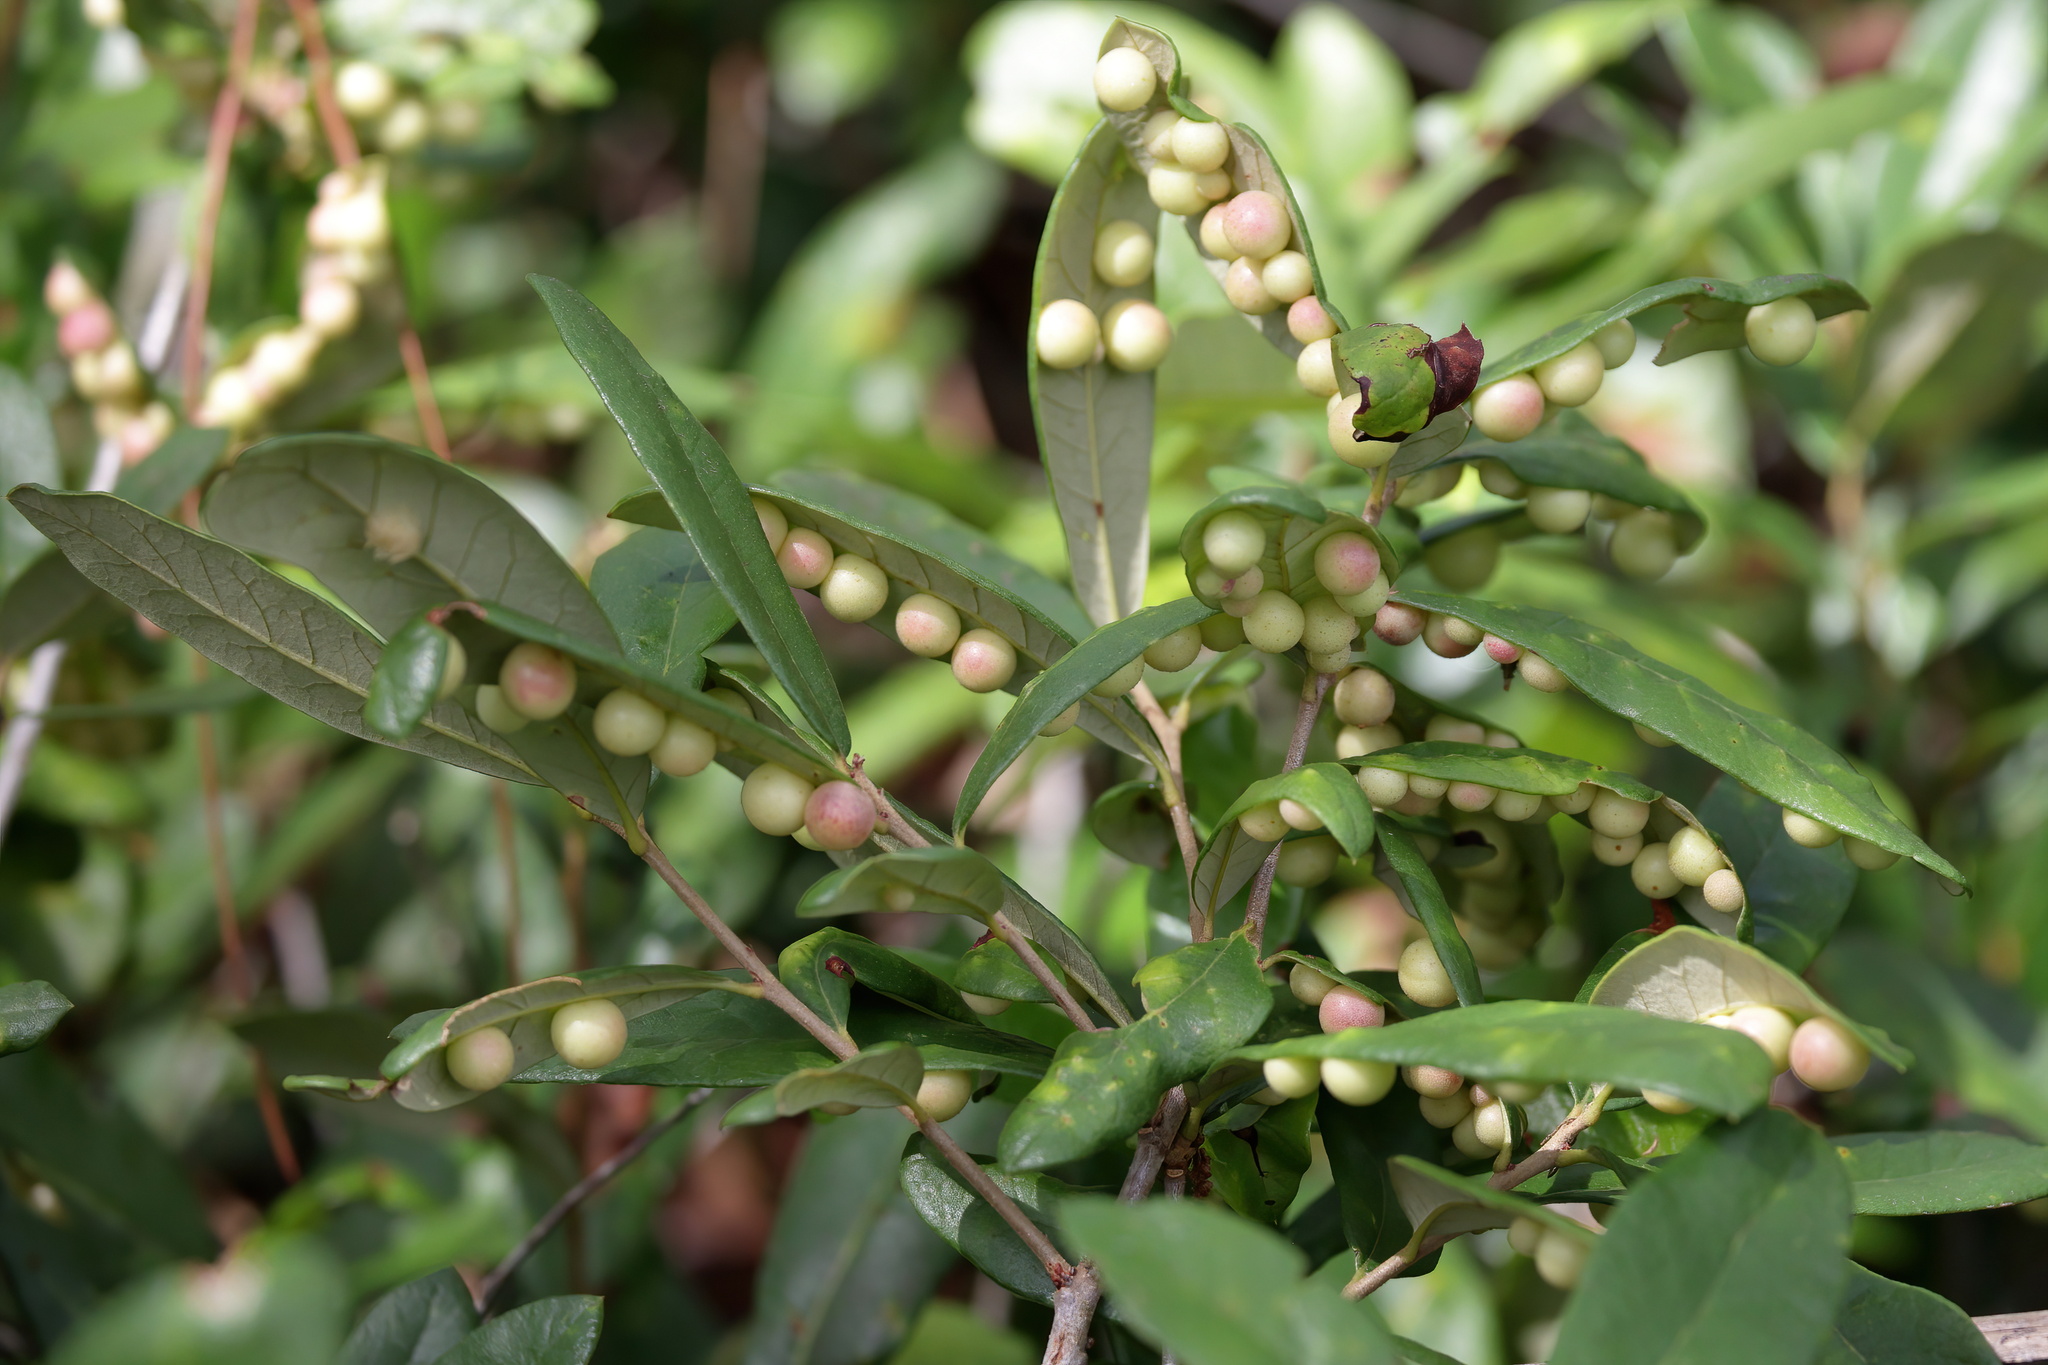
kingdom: Animalia
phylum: Arthropoda
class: Insecta
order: Hymenoptera
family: Cynipidae
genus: Belonocnema
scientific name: Belonocnema treatae
